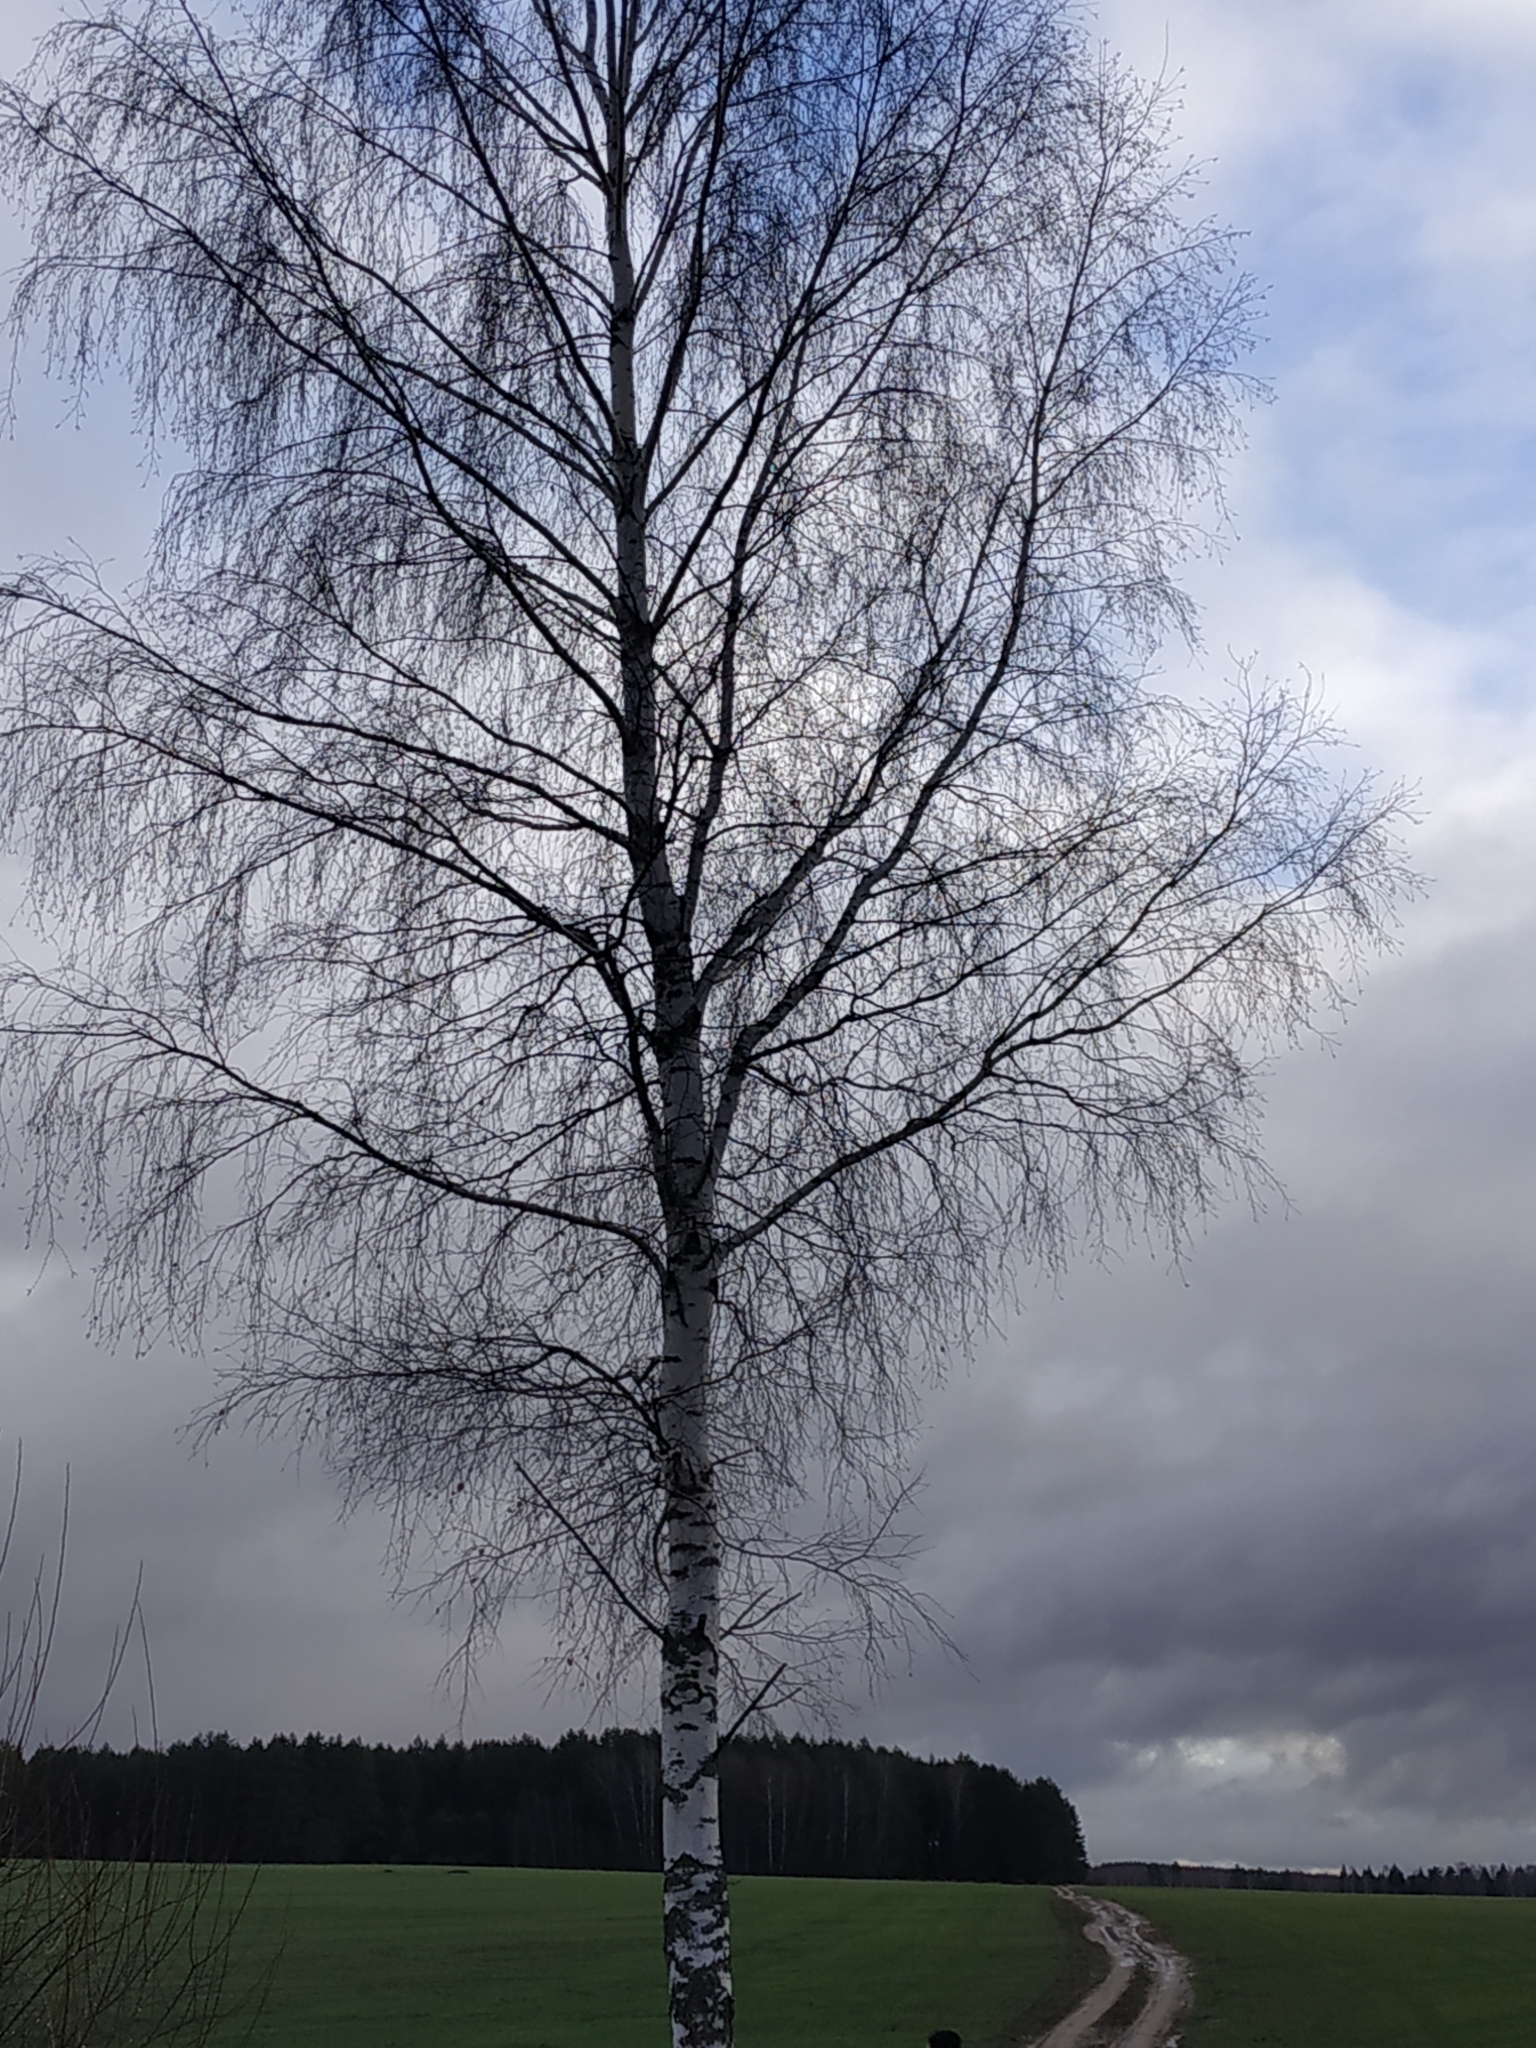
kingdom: Plantae
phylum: Tracheophyta
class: Magnoliopsida
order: Fagales
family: Betulaceae
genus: Betula
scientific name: Betula pendula
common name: Silver birch
